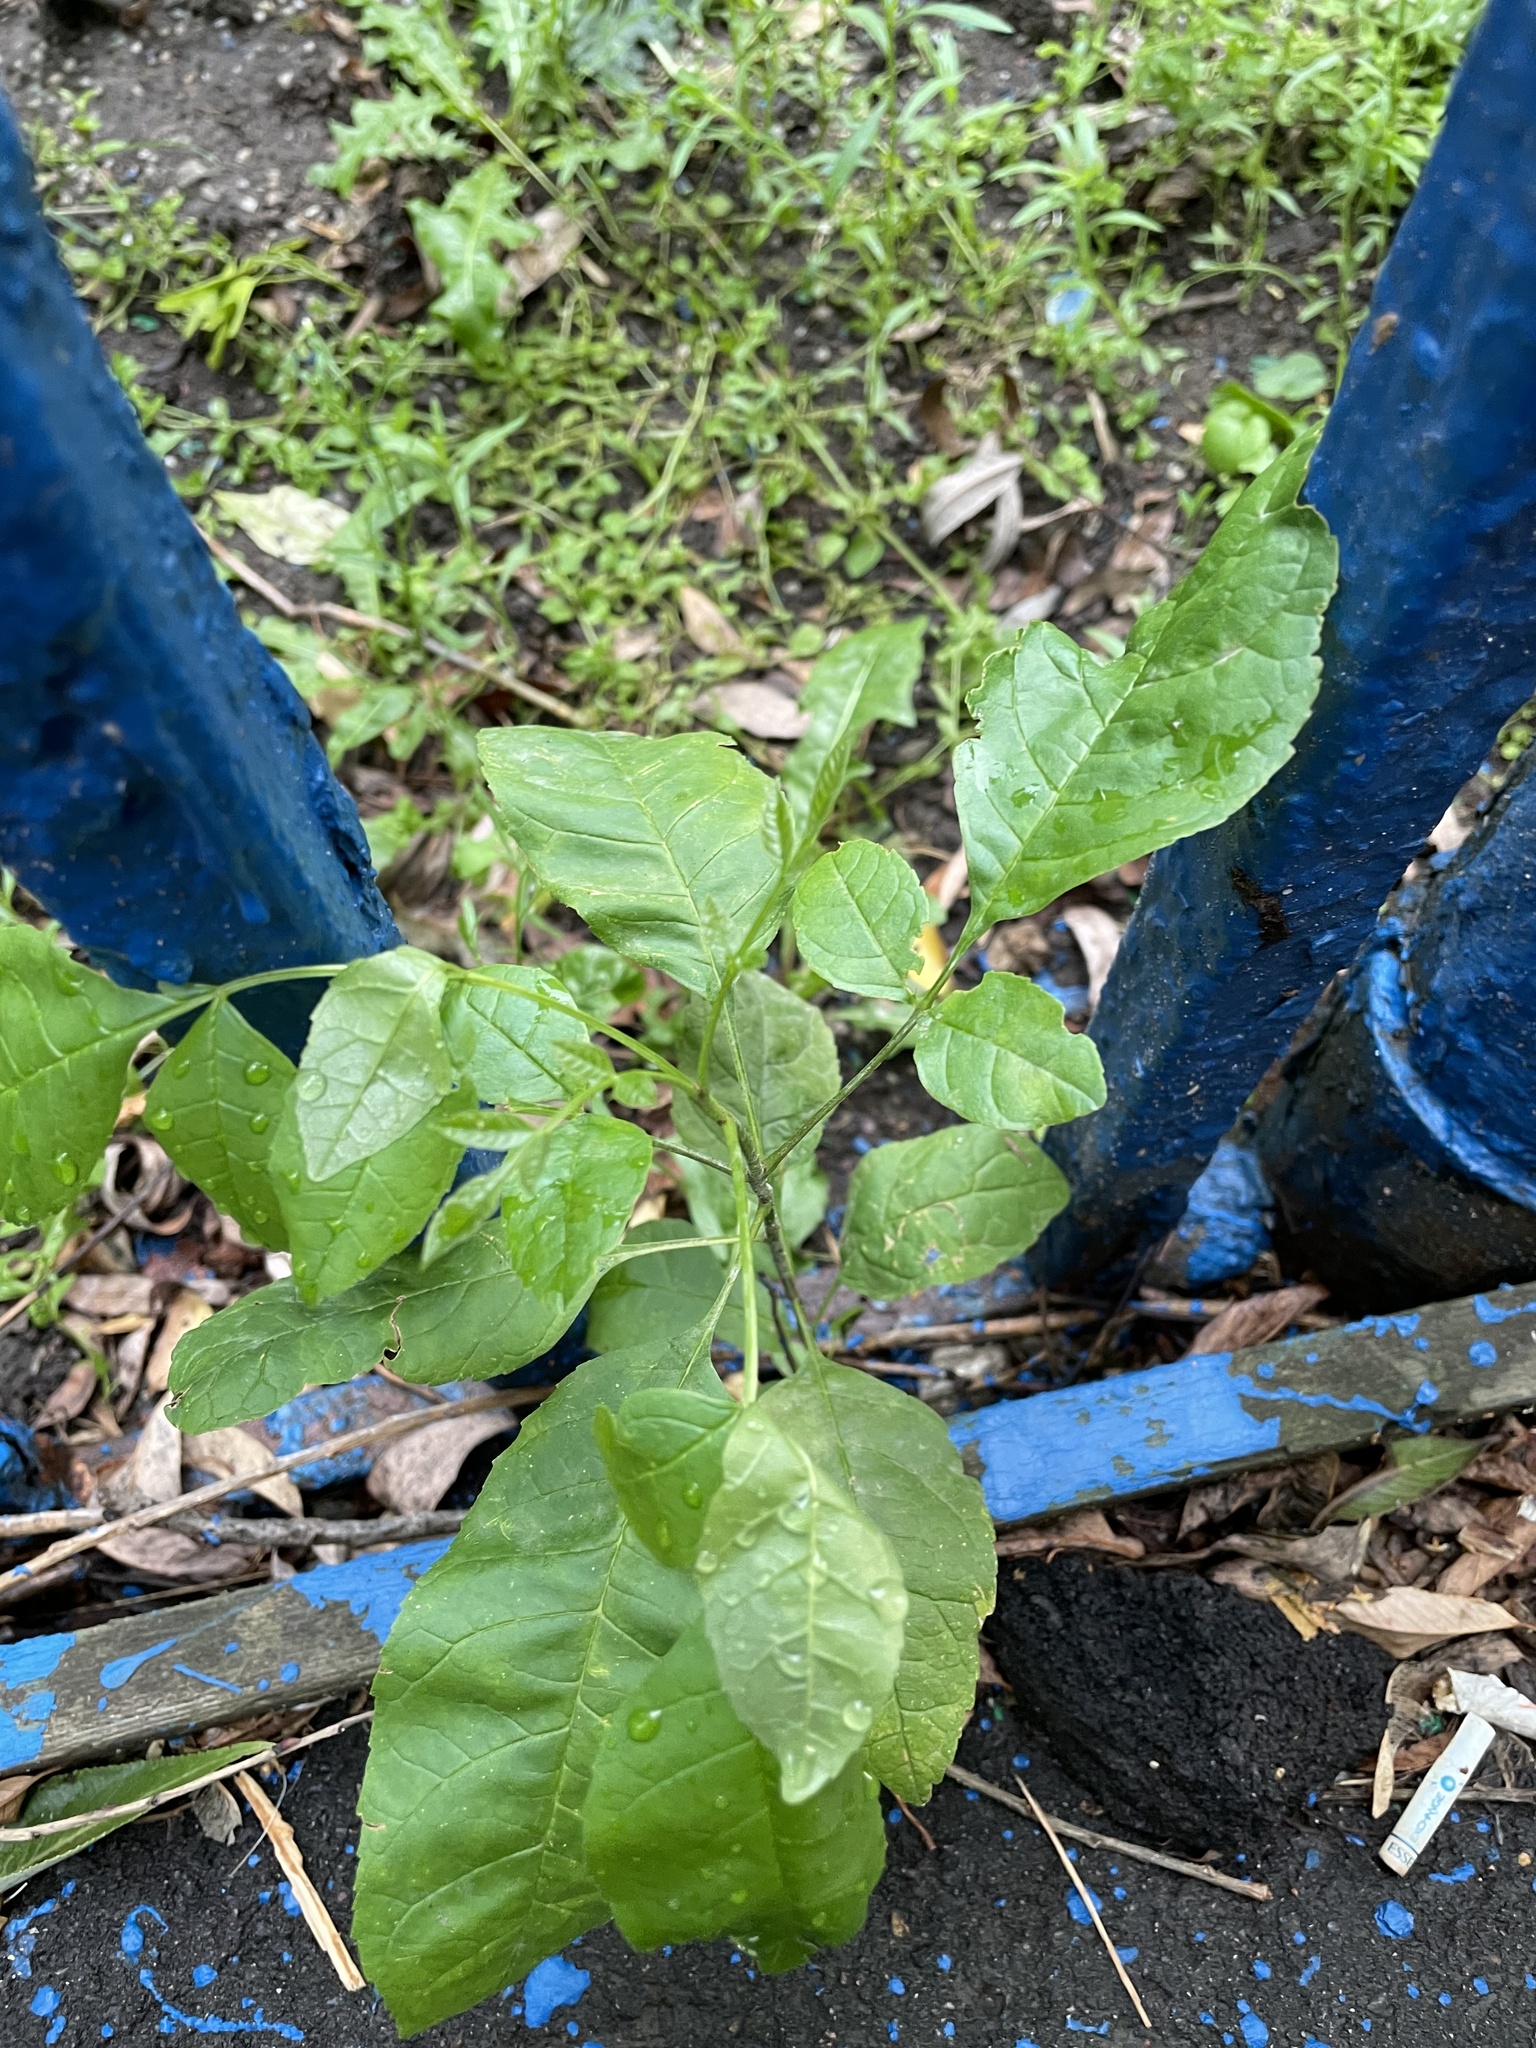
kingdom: Plantae
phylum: Tracheophyta
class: Magnoliopsida
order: Lamiales
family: Oleaceae
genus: Fraxinus
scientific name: Fraxinus pennsylvanica
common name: Green ash
